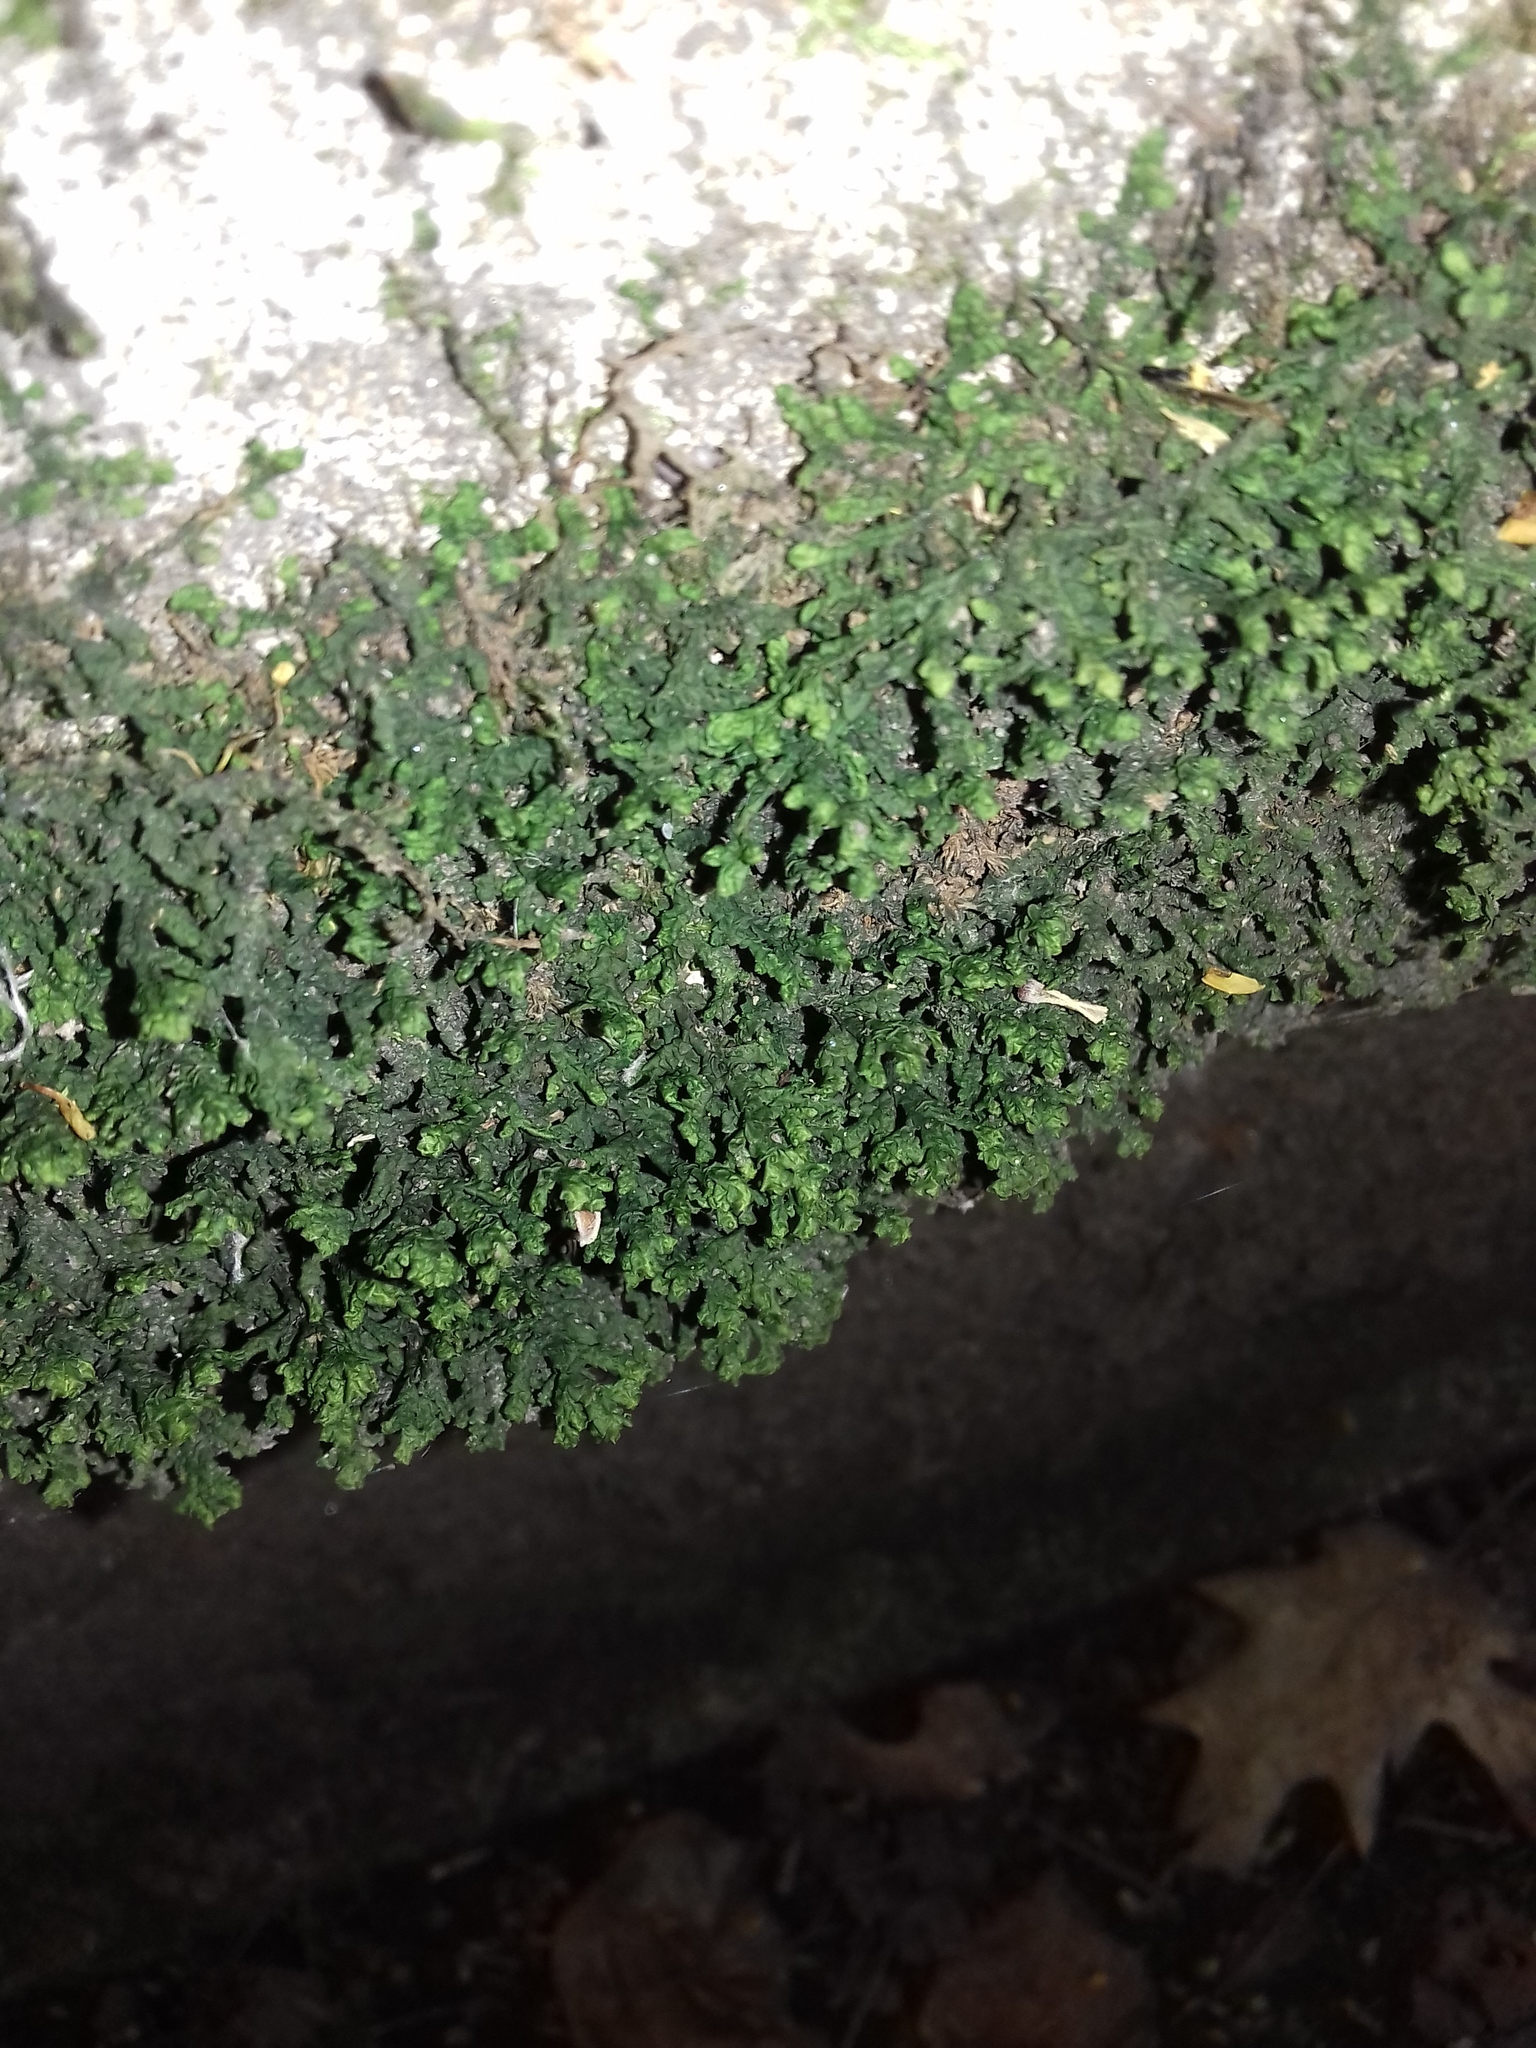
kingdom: Plantae
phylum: Marchantiophyta
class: Jungermanniopsida
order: Porellales
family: Porellaceae
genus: Porella
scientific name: Porella platyphylla
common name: Wall scalewort
